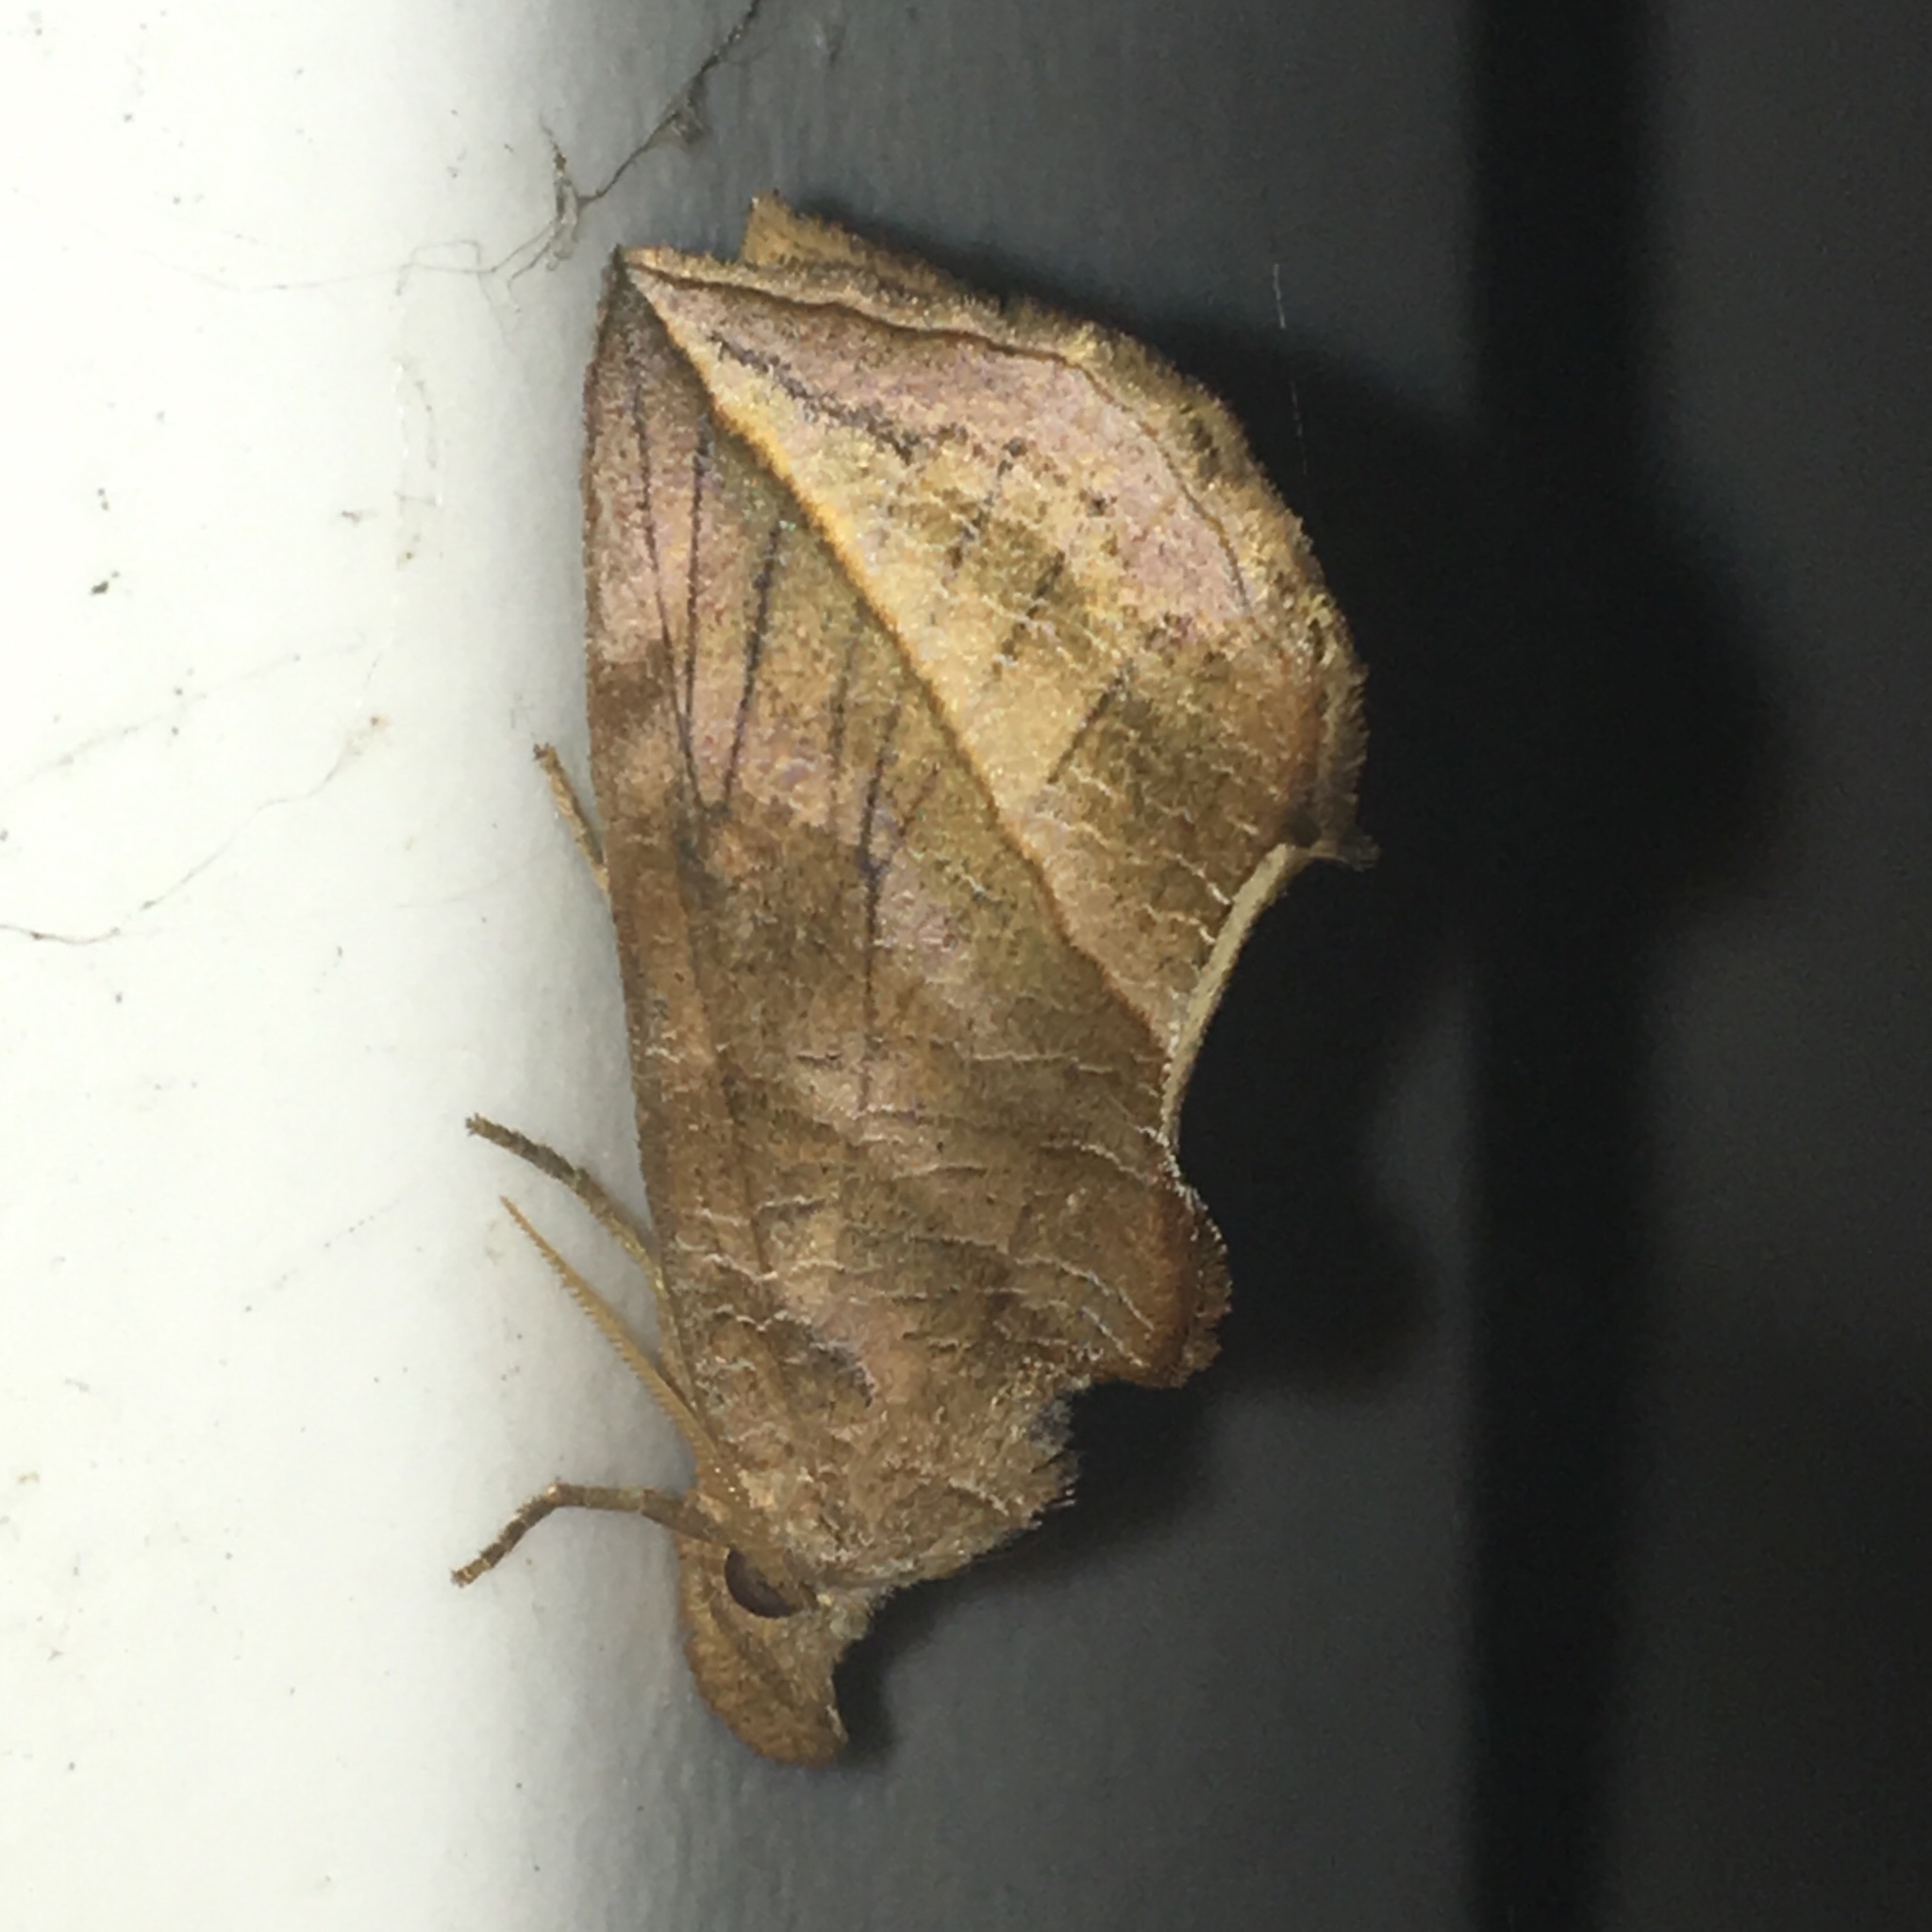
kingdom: Animalia
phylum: Arthropoda
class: Insecta
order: Lepidoptera
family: Erebidae
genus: Calyptra
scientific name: Calyptra canadensis
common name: Canadian owlet
